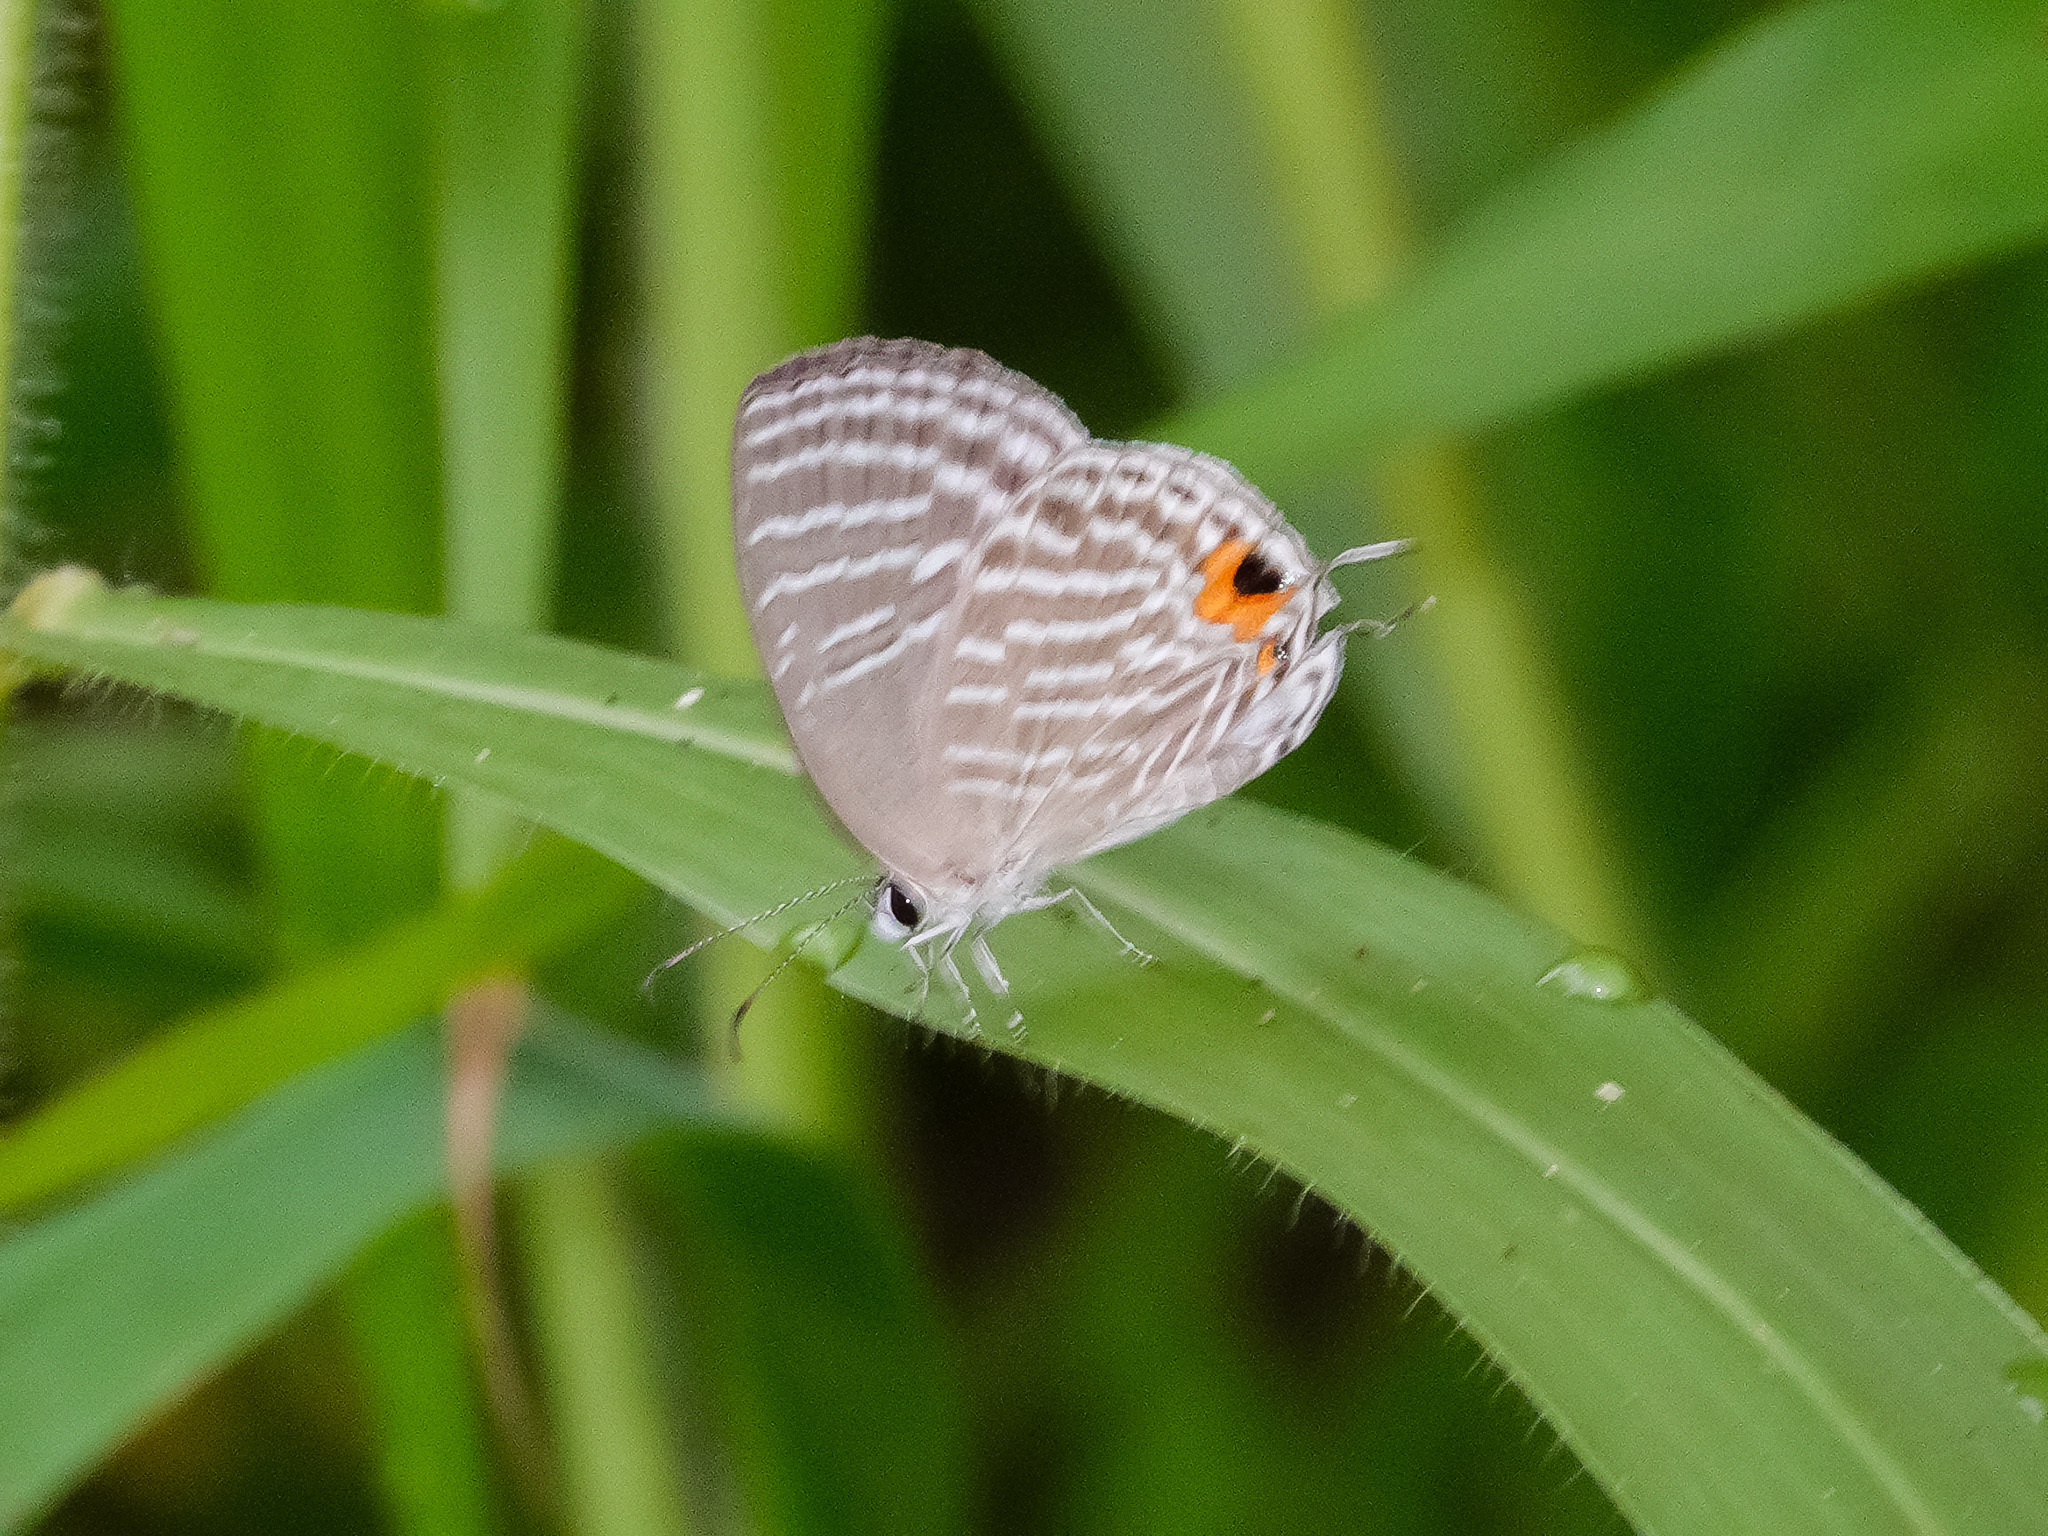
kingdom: Animalia
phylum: Arthropoda
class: Insecta
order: Lepidoptera
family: Lycaenidae
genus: Jamides
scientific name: Jamides celeno
